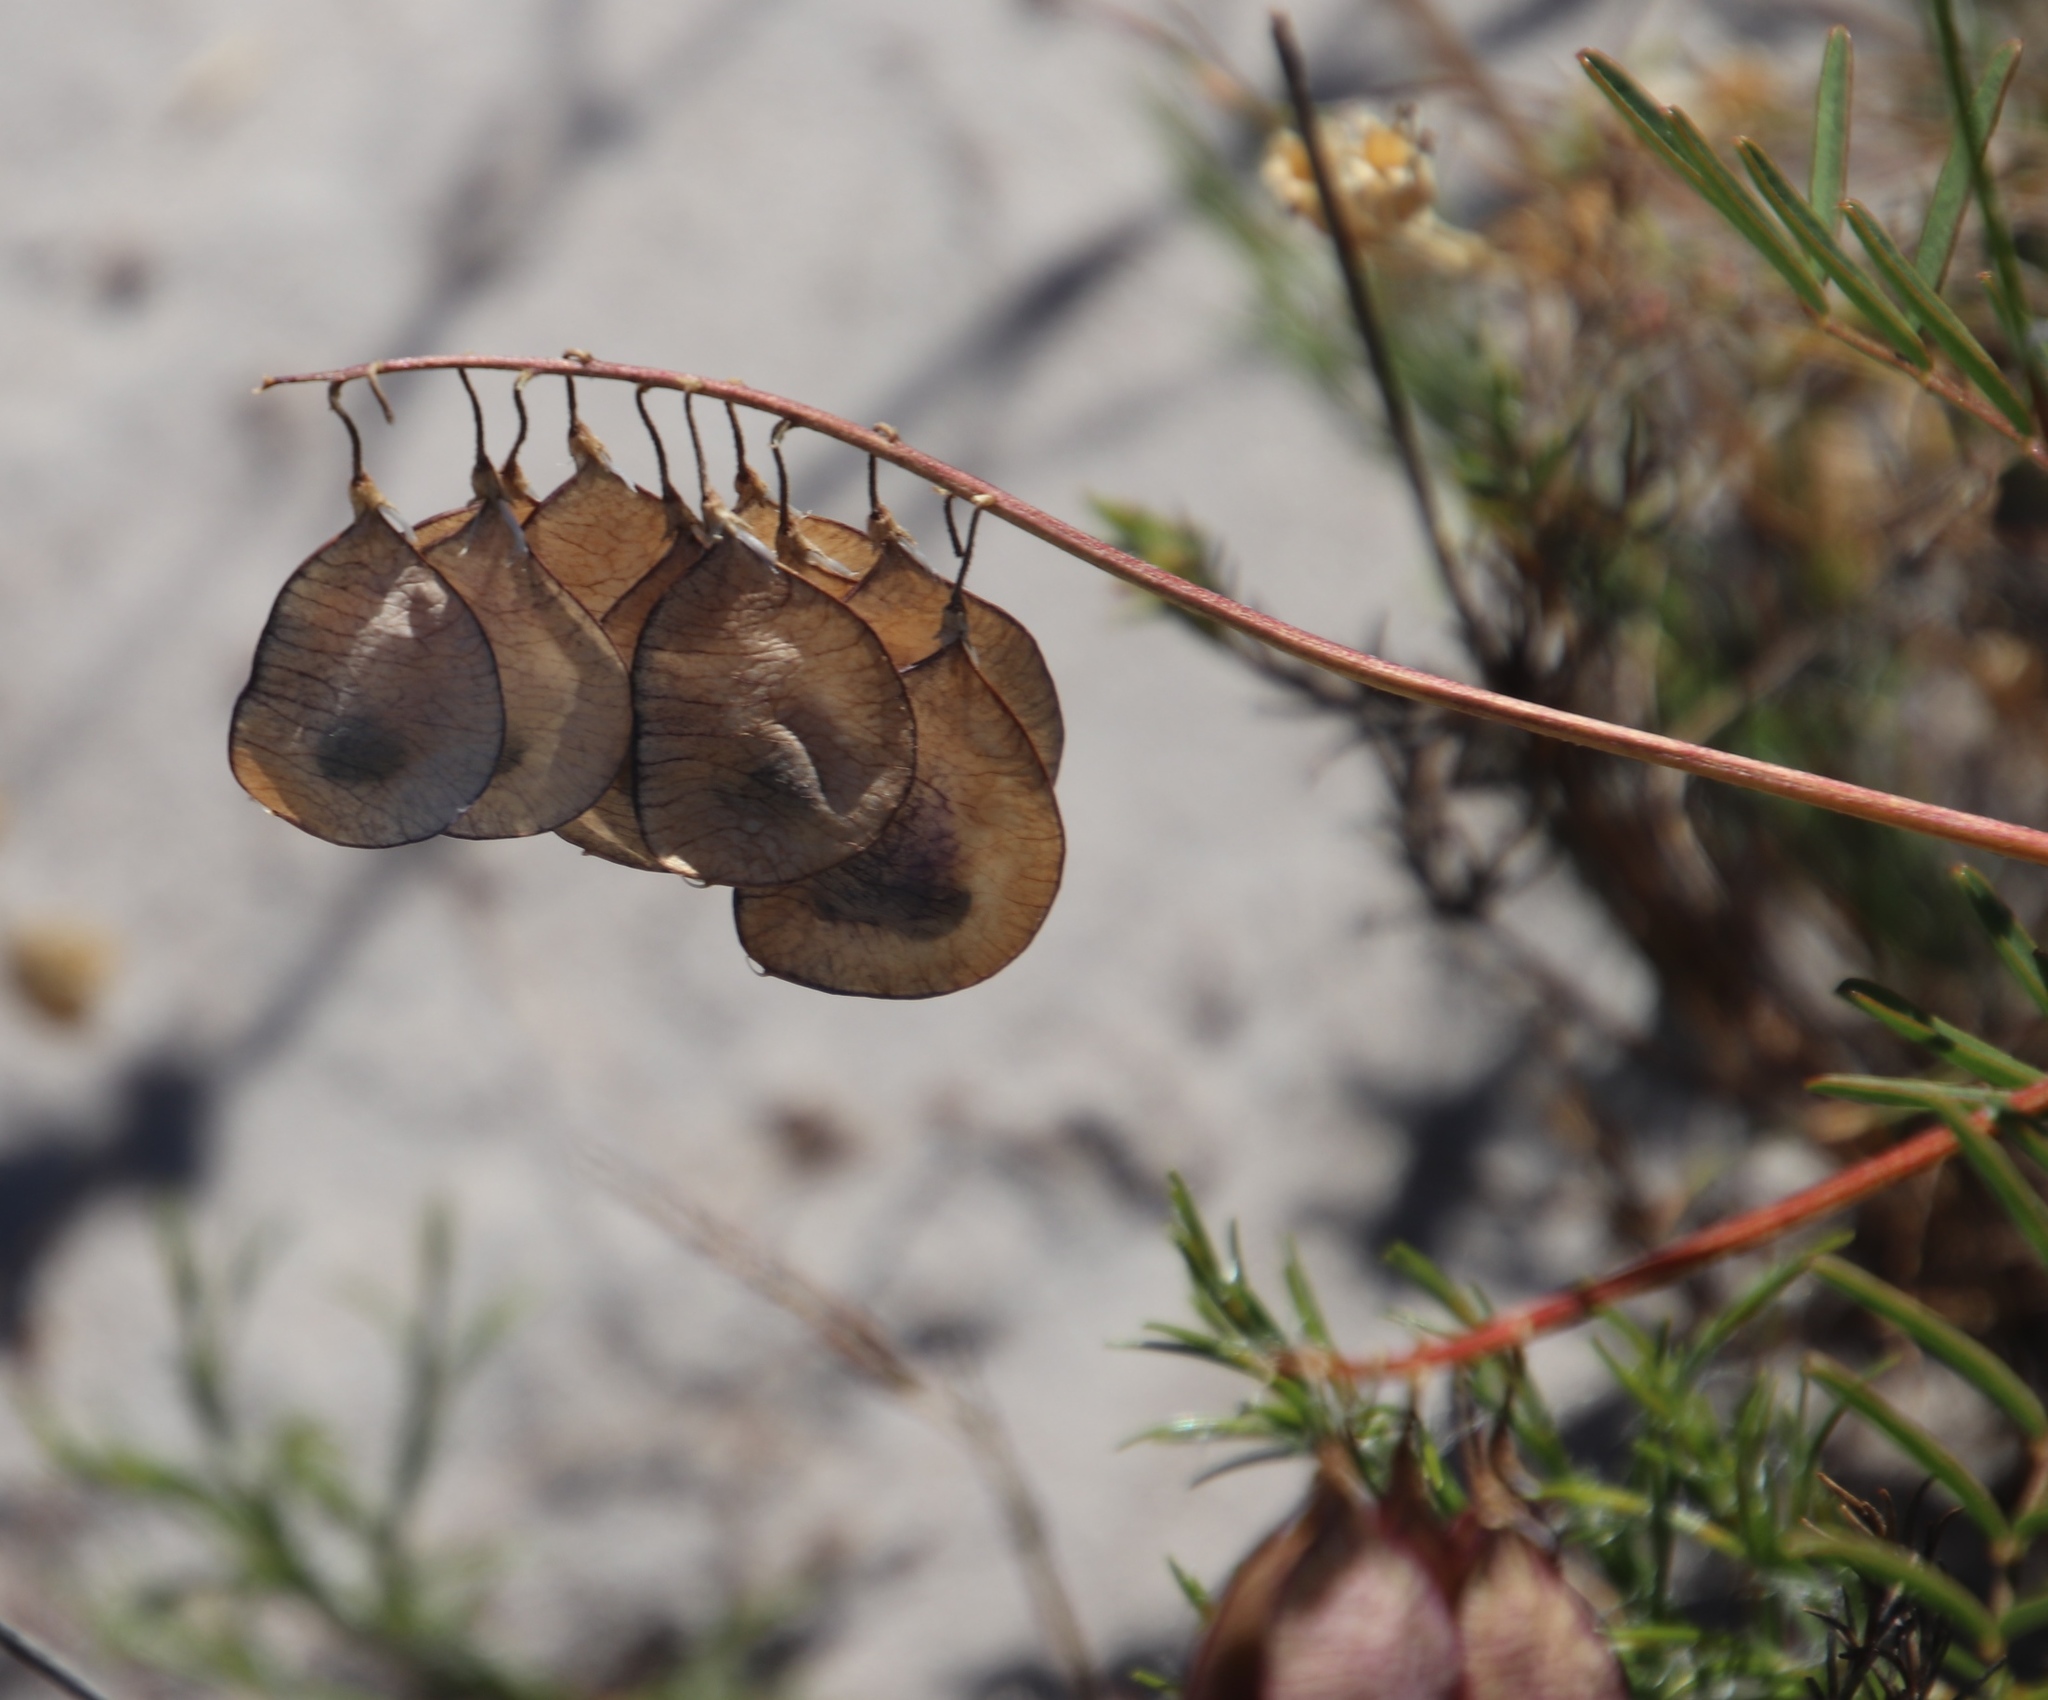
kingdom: Plantae
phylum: Tracheophyta
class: Magnoliopsida
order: Fabales
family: Fabaceae
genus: Lessertia
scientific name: Lessertia herbacea
